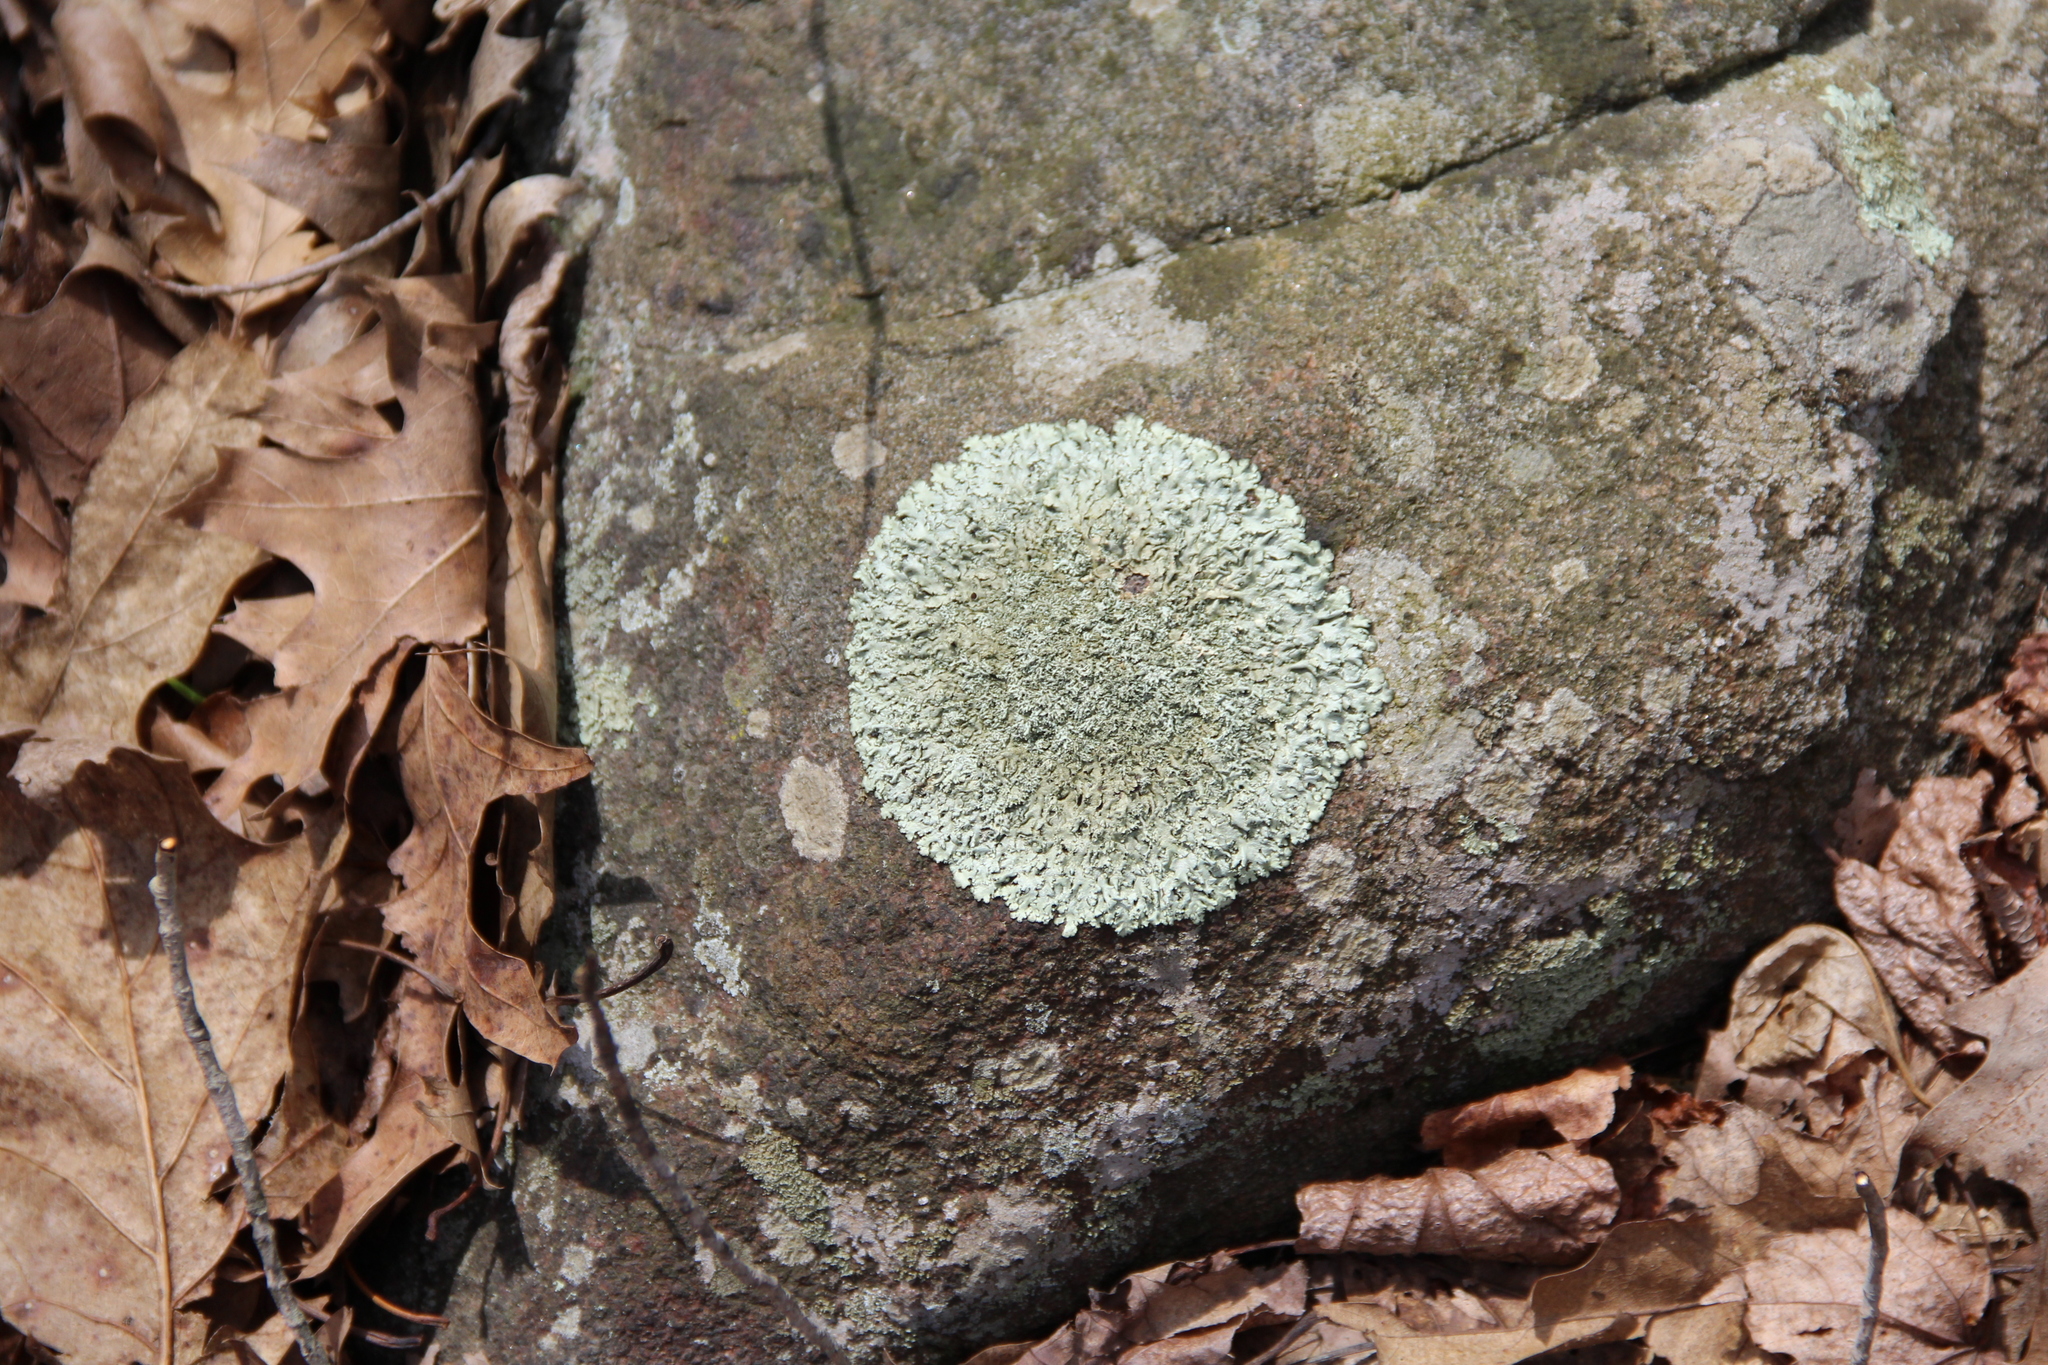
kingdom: Fungi
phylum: Ascomycota
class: Lecanoromycetes
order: Lecanorales
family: Parmeliaceae
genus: Flavoparmelia
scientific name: Flavoparmelia caperata
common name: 40-mile per hour lichen
